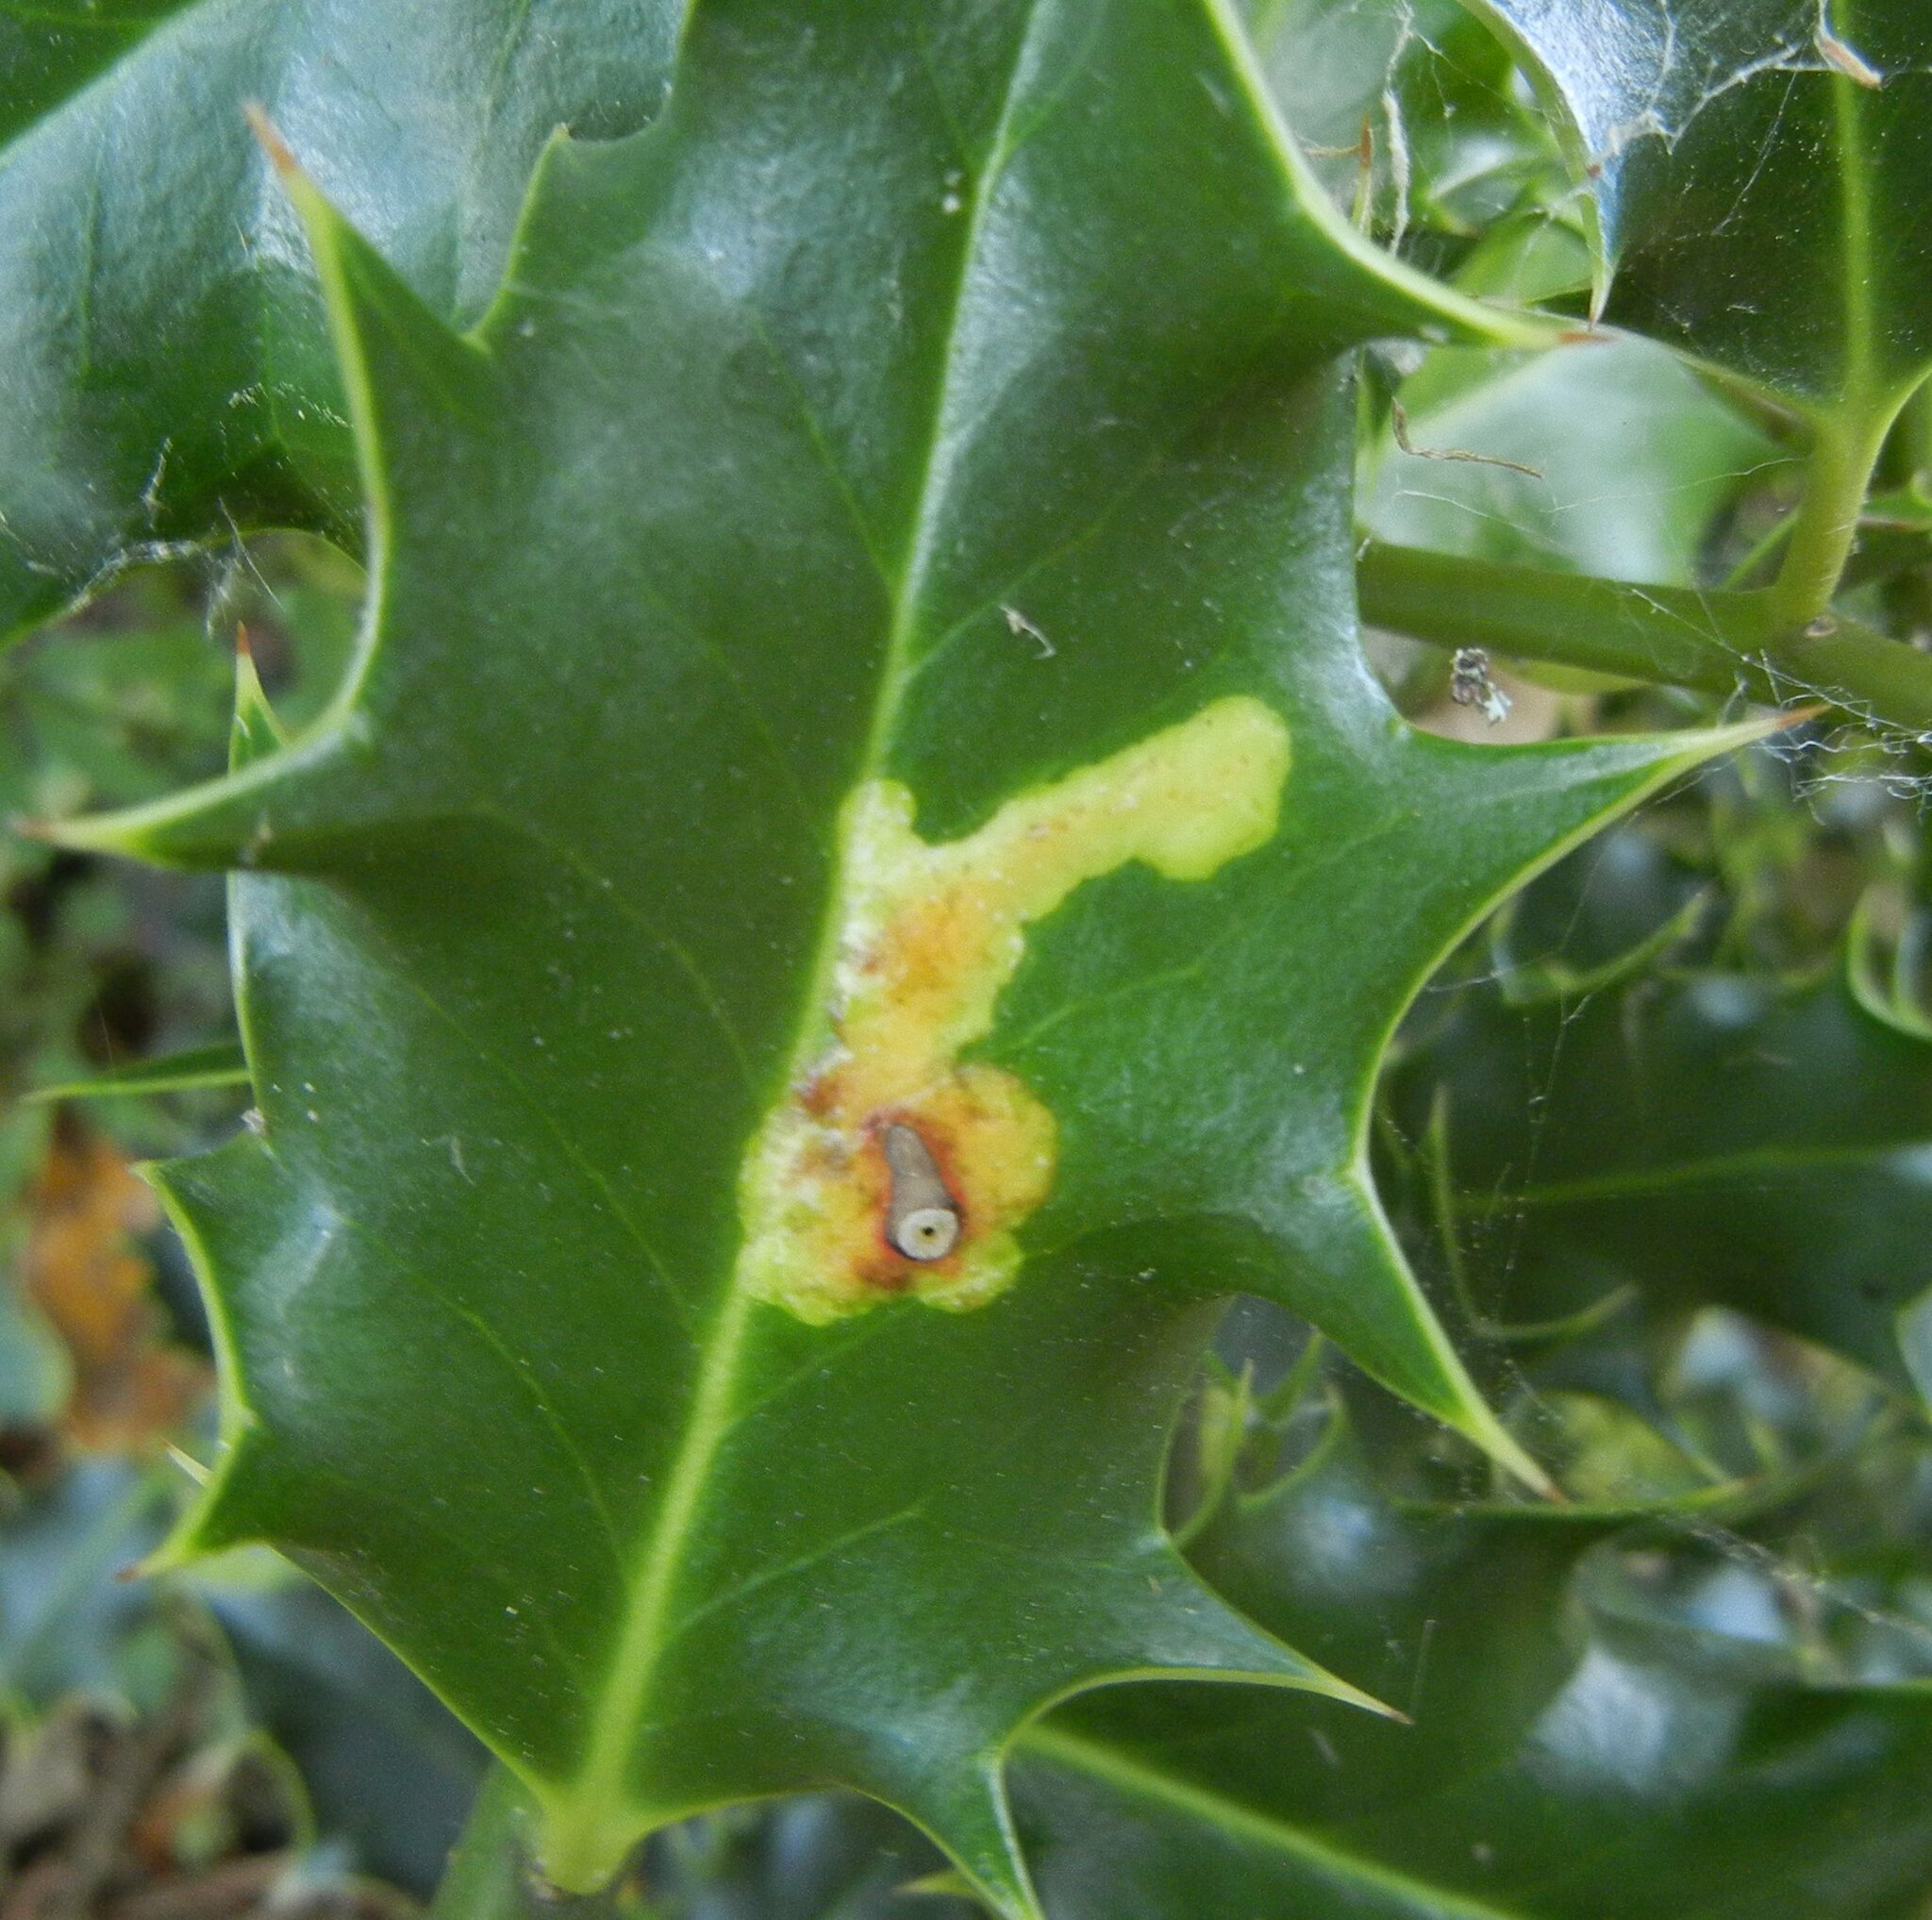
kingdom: Animalia
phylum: Arthropoda
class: Insecta
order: Diptera
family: Agromyzidae
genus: Phytomyza
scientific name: Phytomyza ilicis
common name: Holly leafminer
